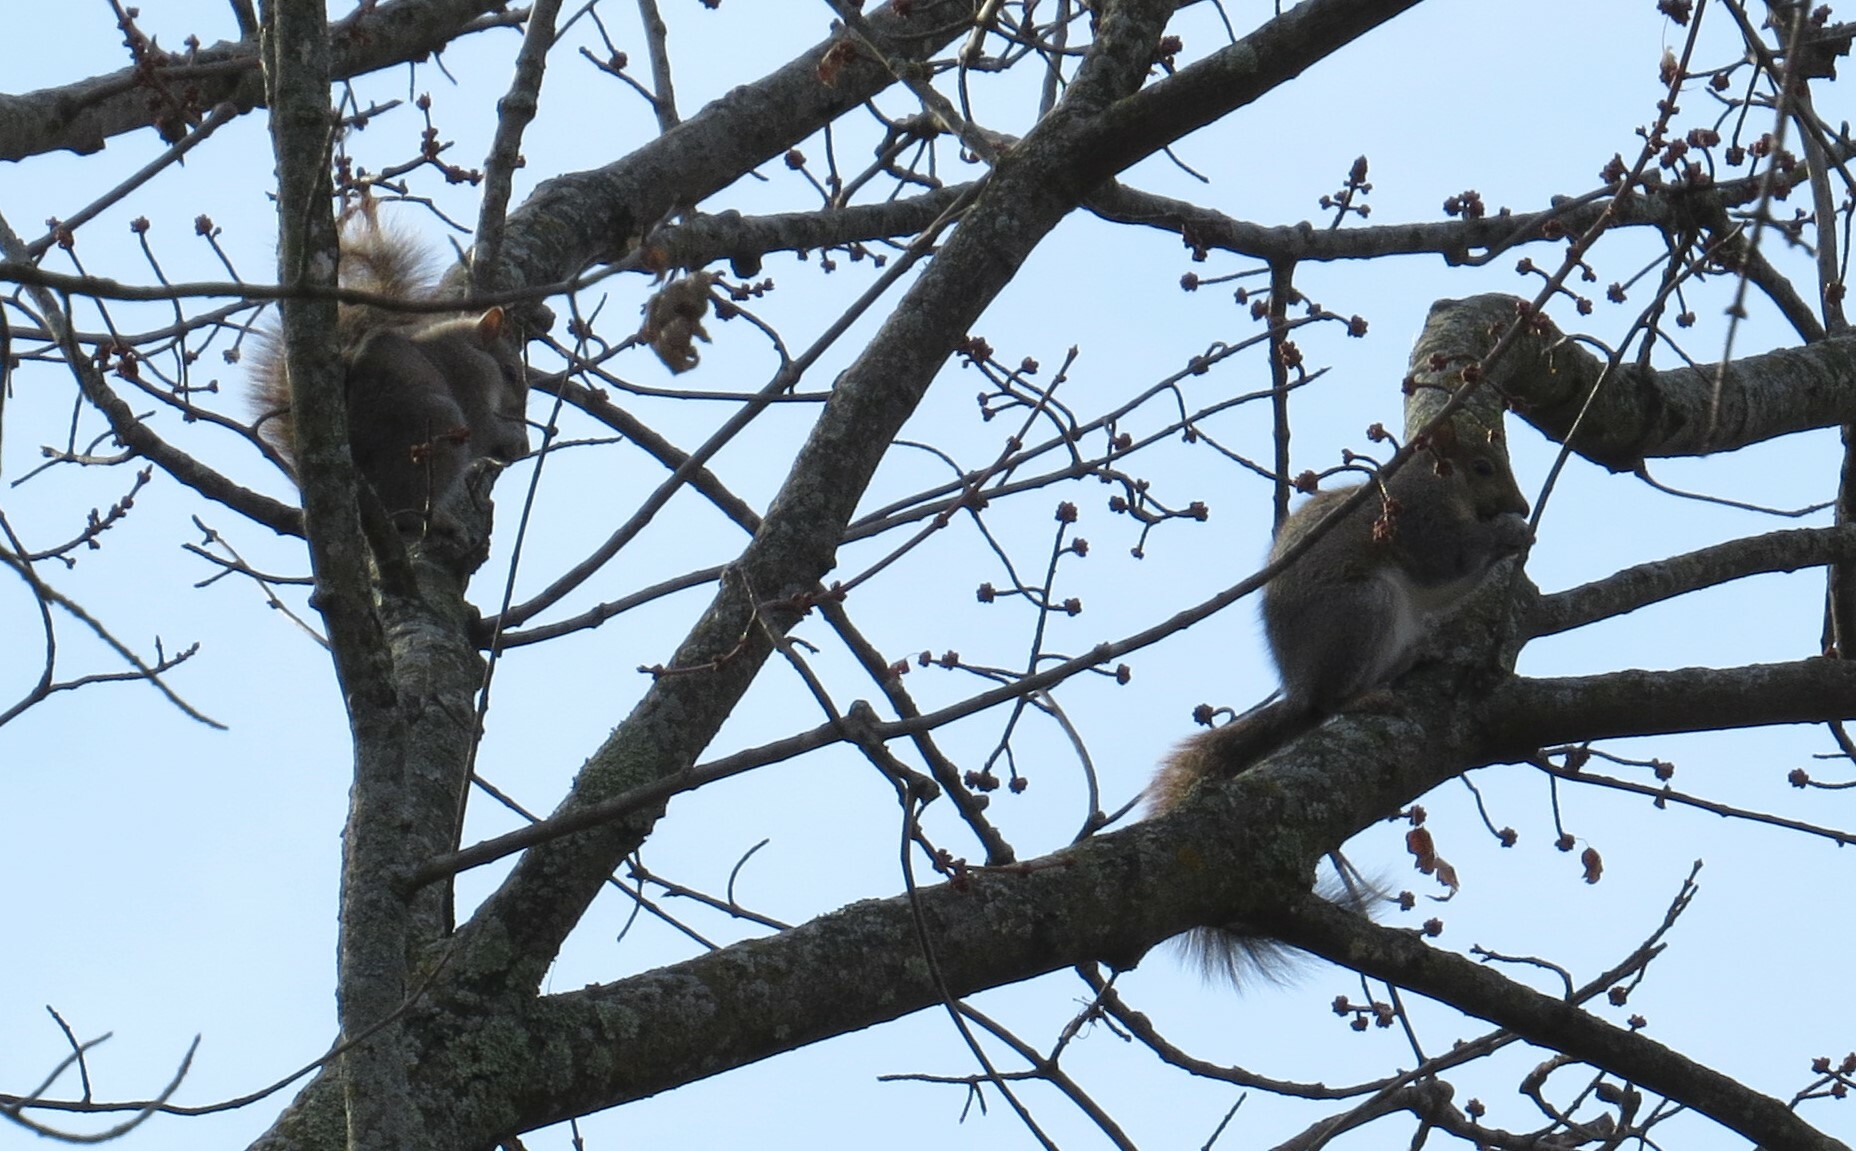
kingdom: Animalia
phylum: Chordata
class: Mammalia
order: Rodentia
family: Sciuridae
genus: Sciurus
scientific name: Sciurus carolinensis
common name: Eastern gray squirrel
